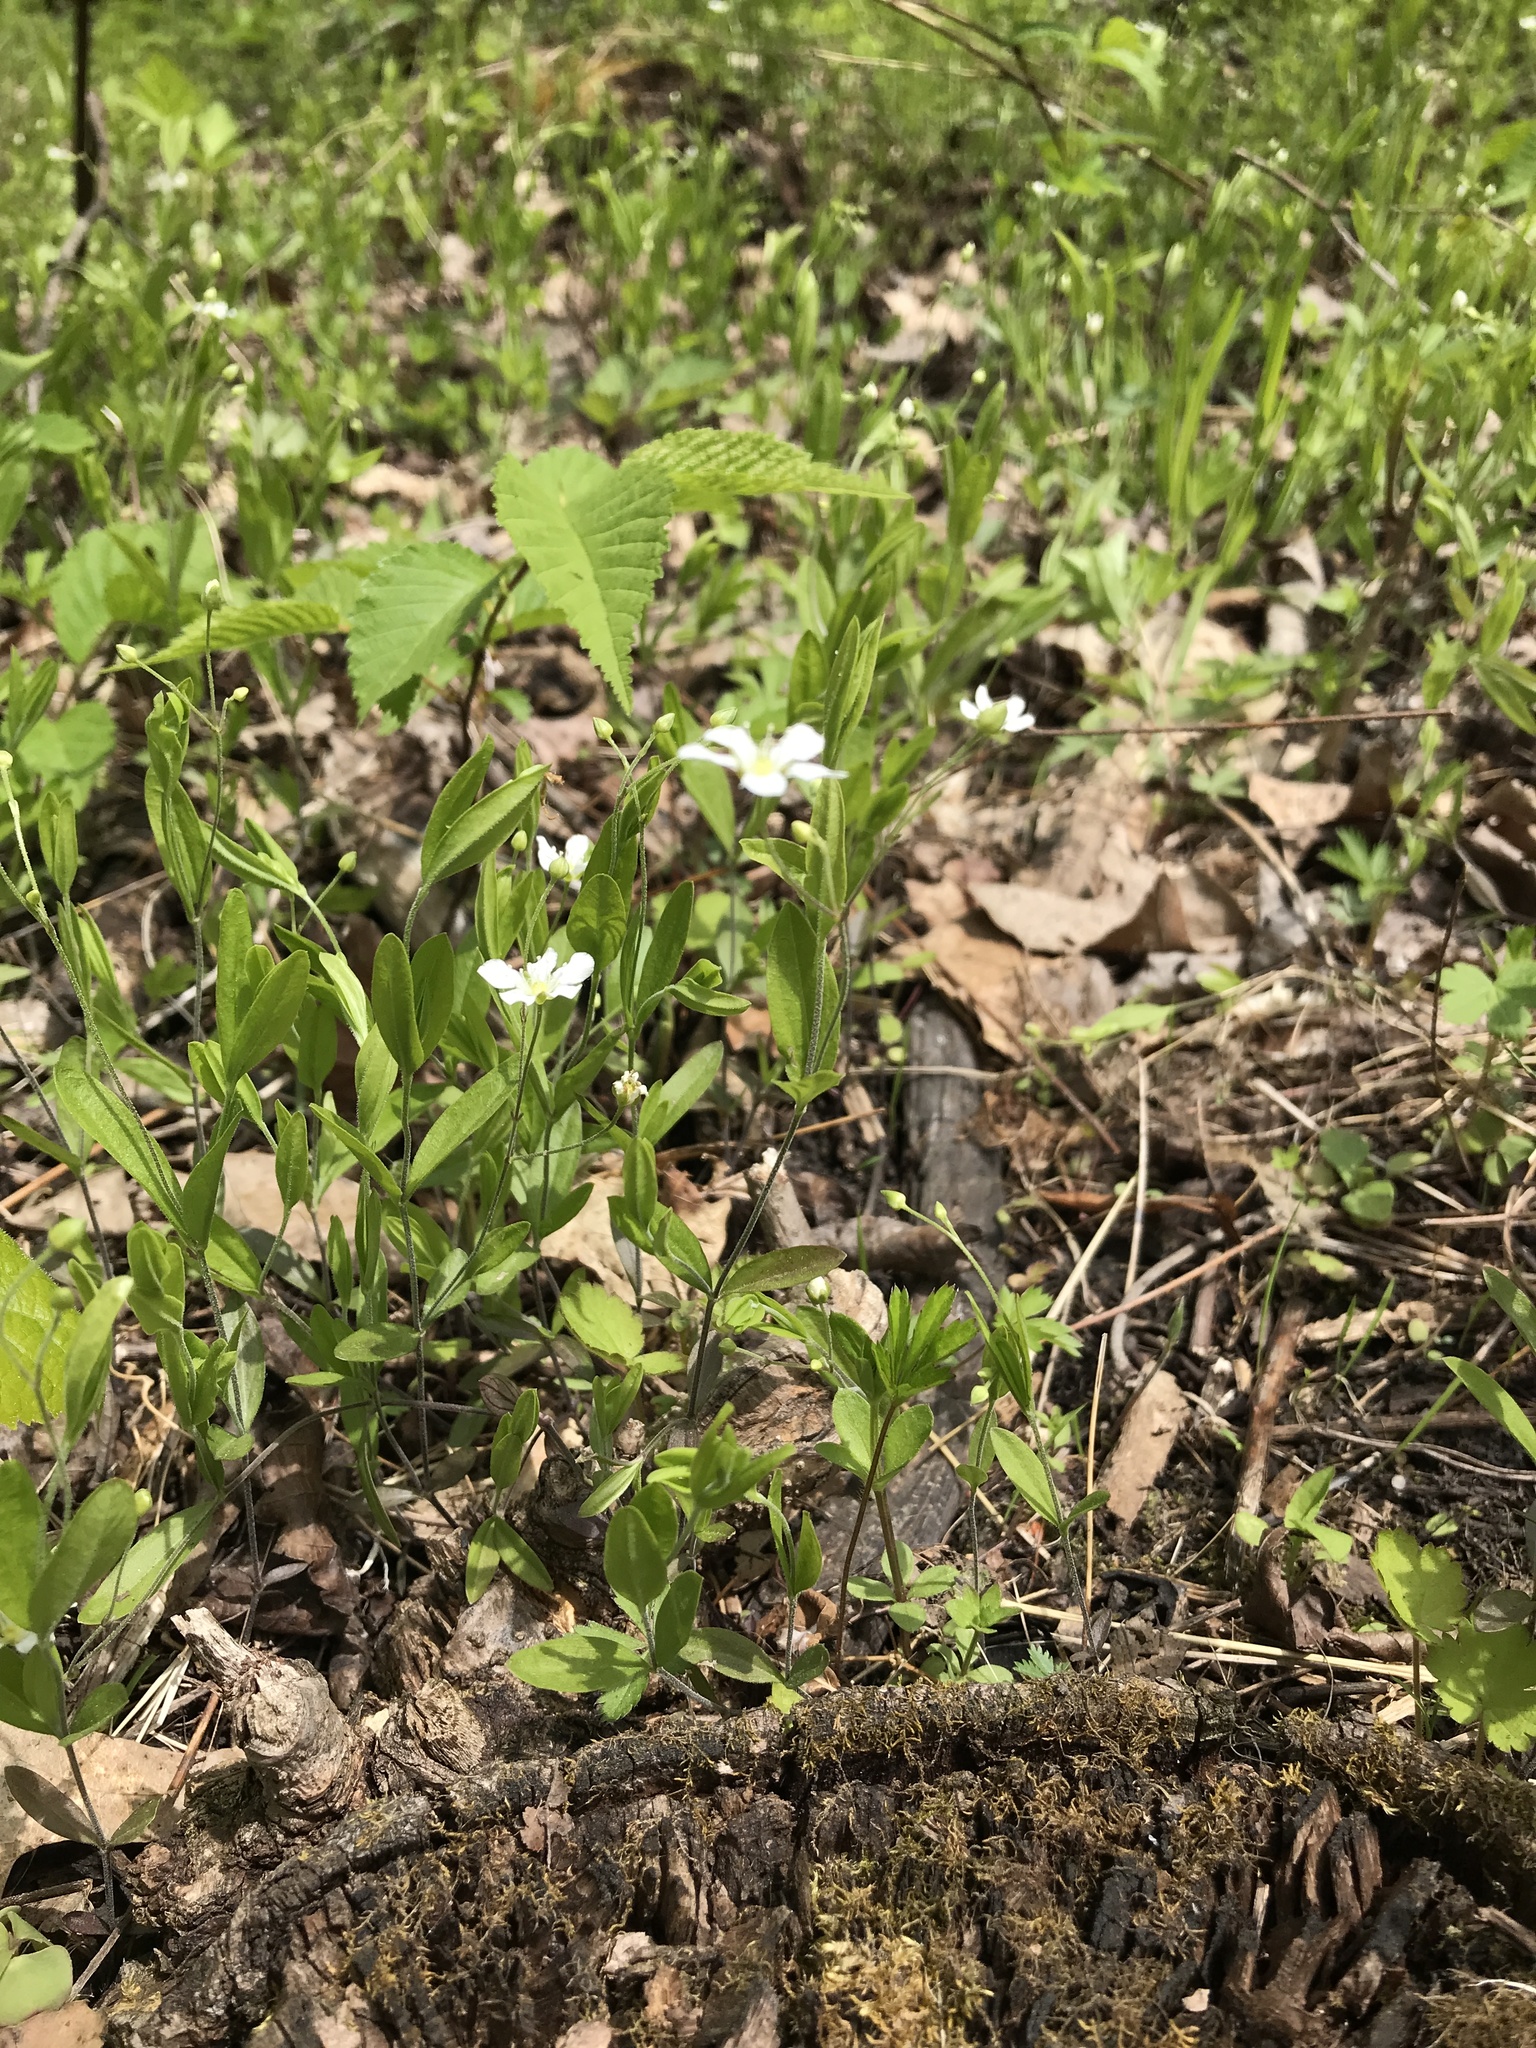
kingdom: Plantae
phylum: Tracheophyta
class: Magnoliopsida
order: Caryophyllales
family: Caryophyllaceae
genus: Moehringia
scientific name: Moehringia lateriflora
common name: Blunt-leaved sandwort
